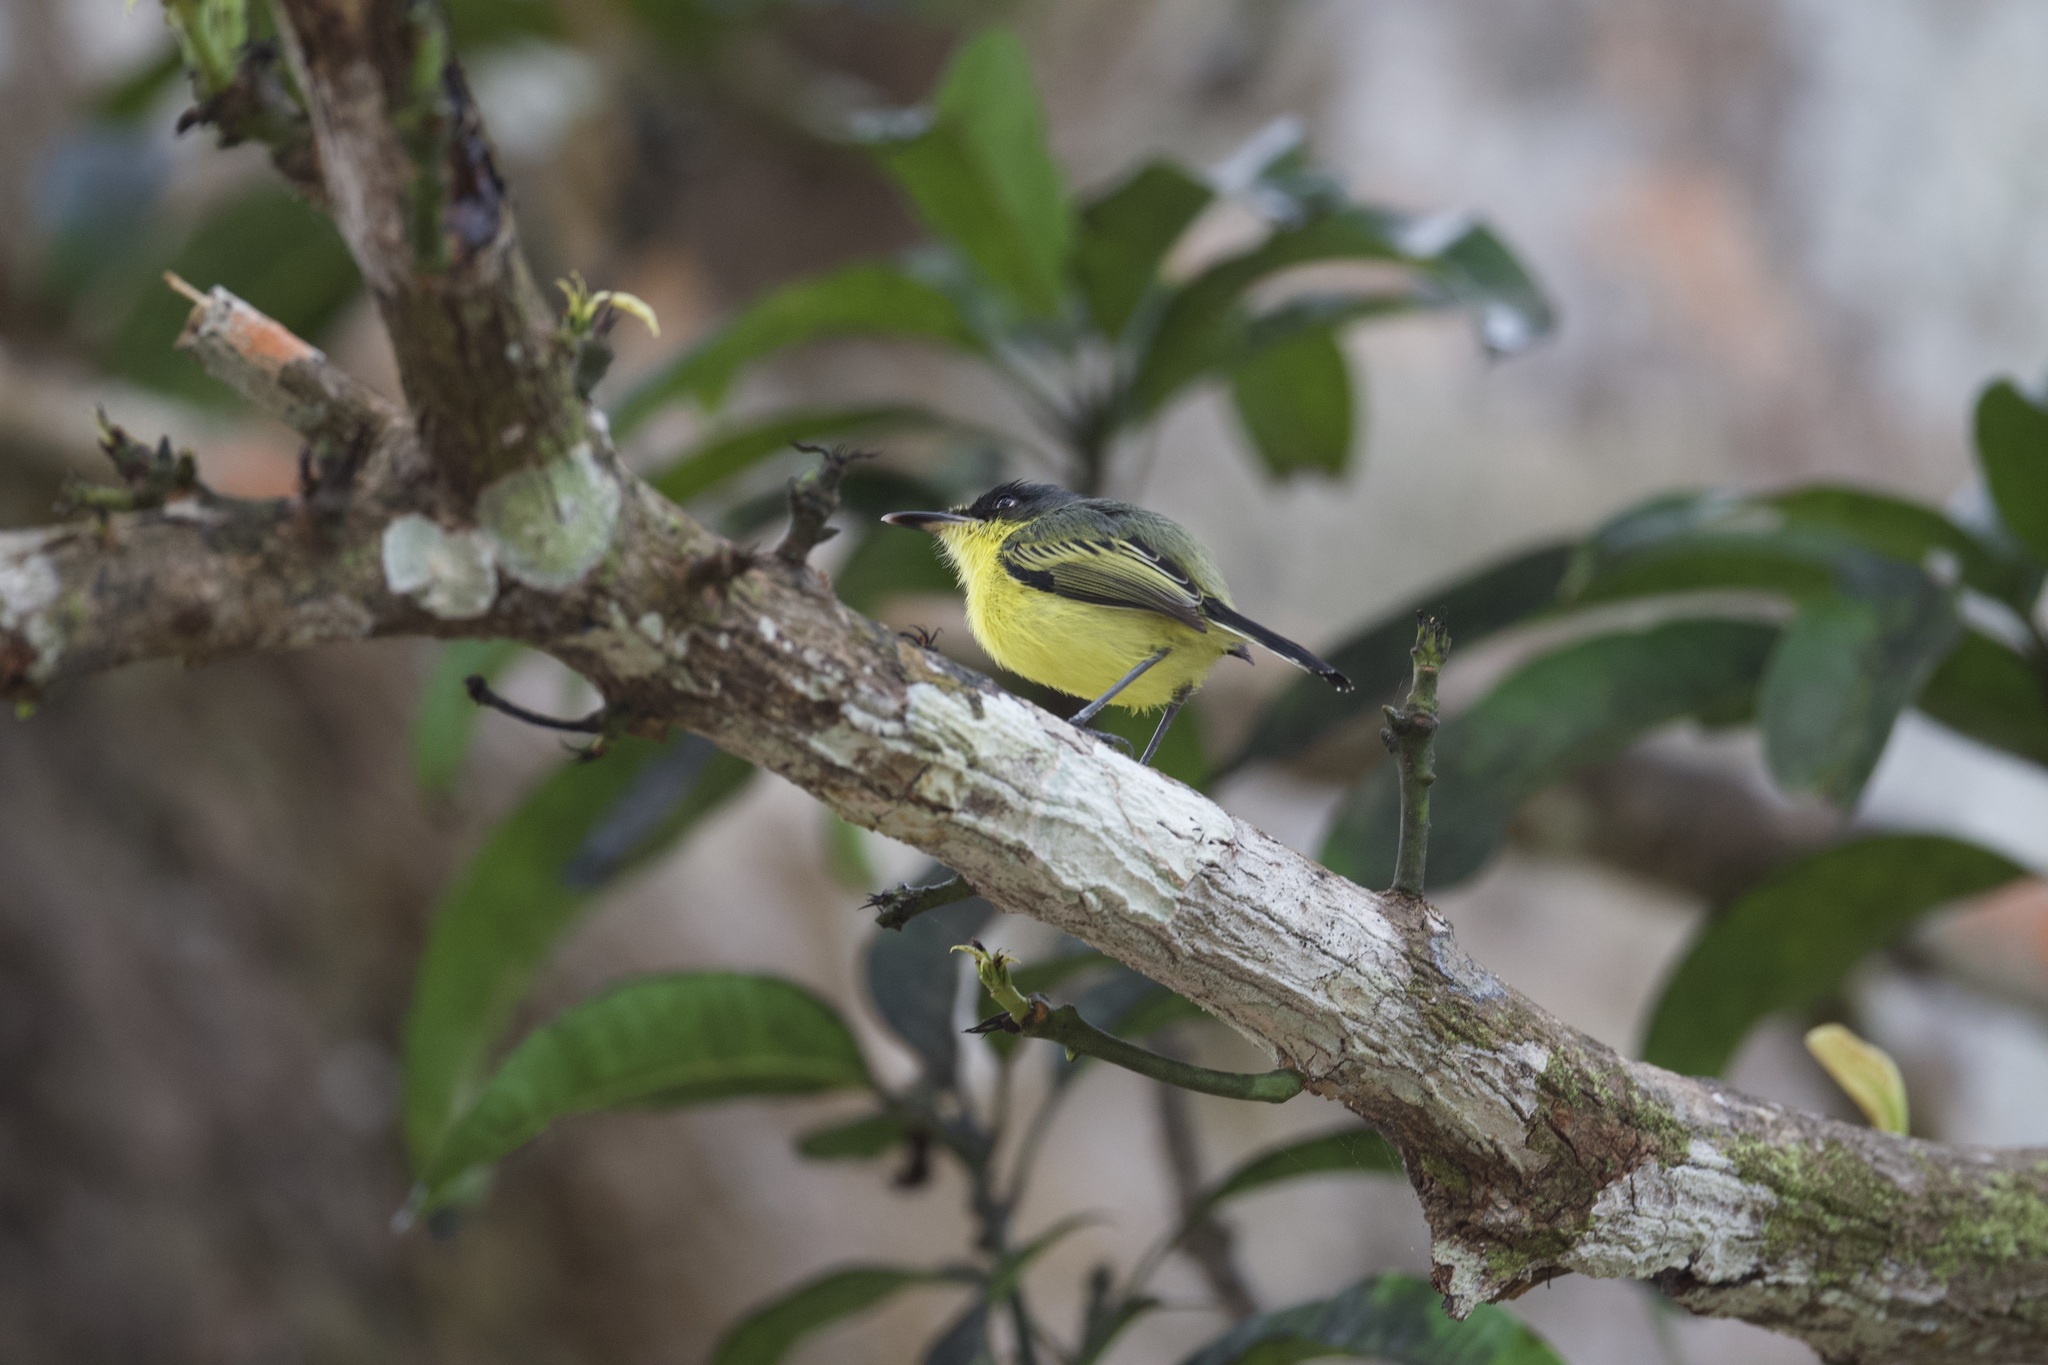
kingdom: Animalia
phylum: Chordata
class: Aves
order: Passeriformes
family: Tyrannidae
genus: Todirostrum
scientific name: Todirostrum cinereum
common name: Common tody-flycatcher
